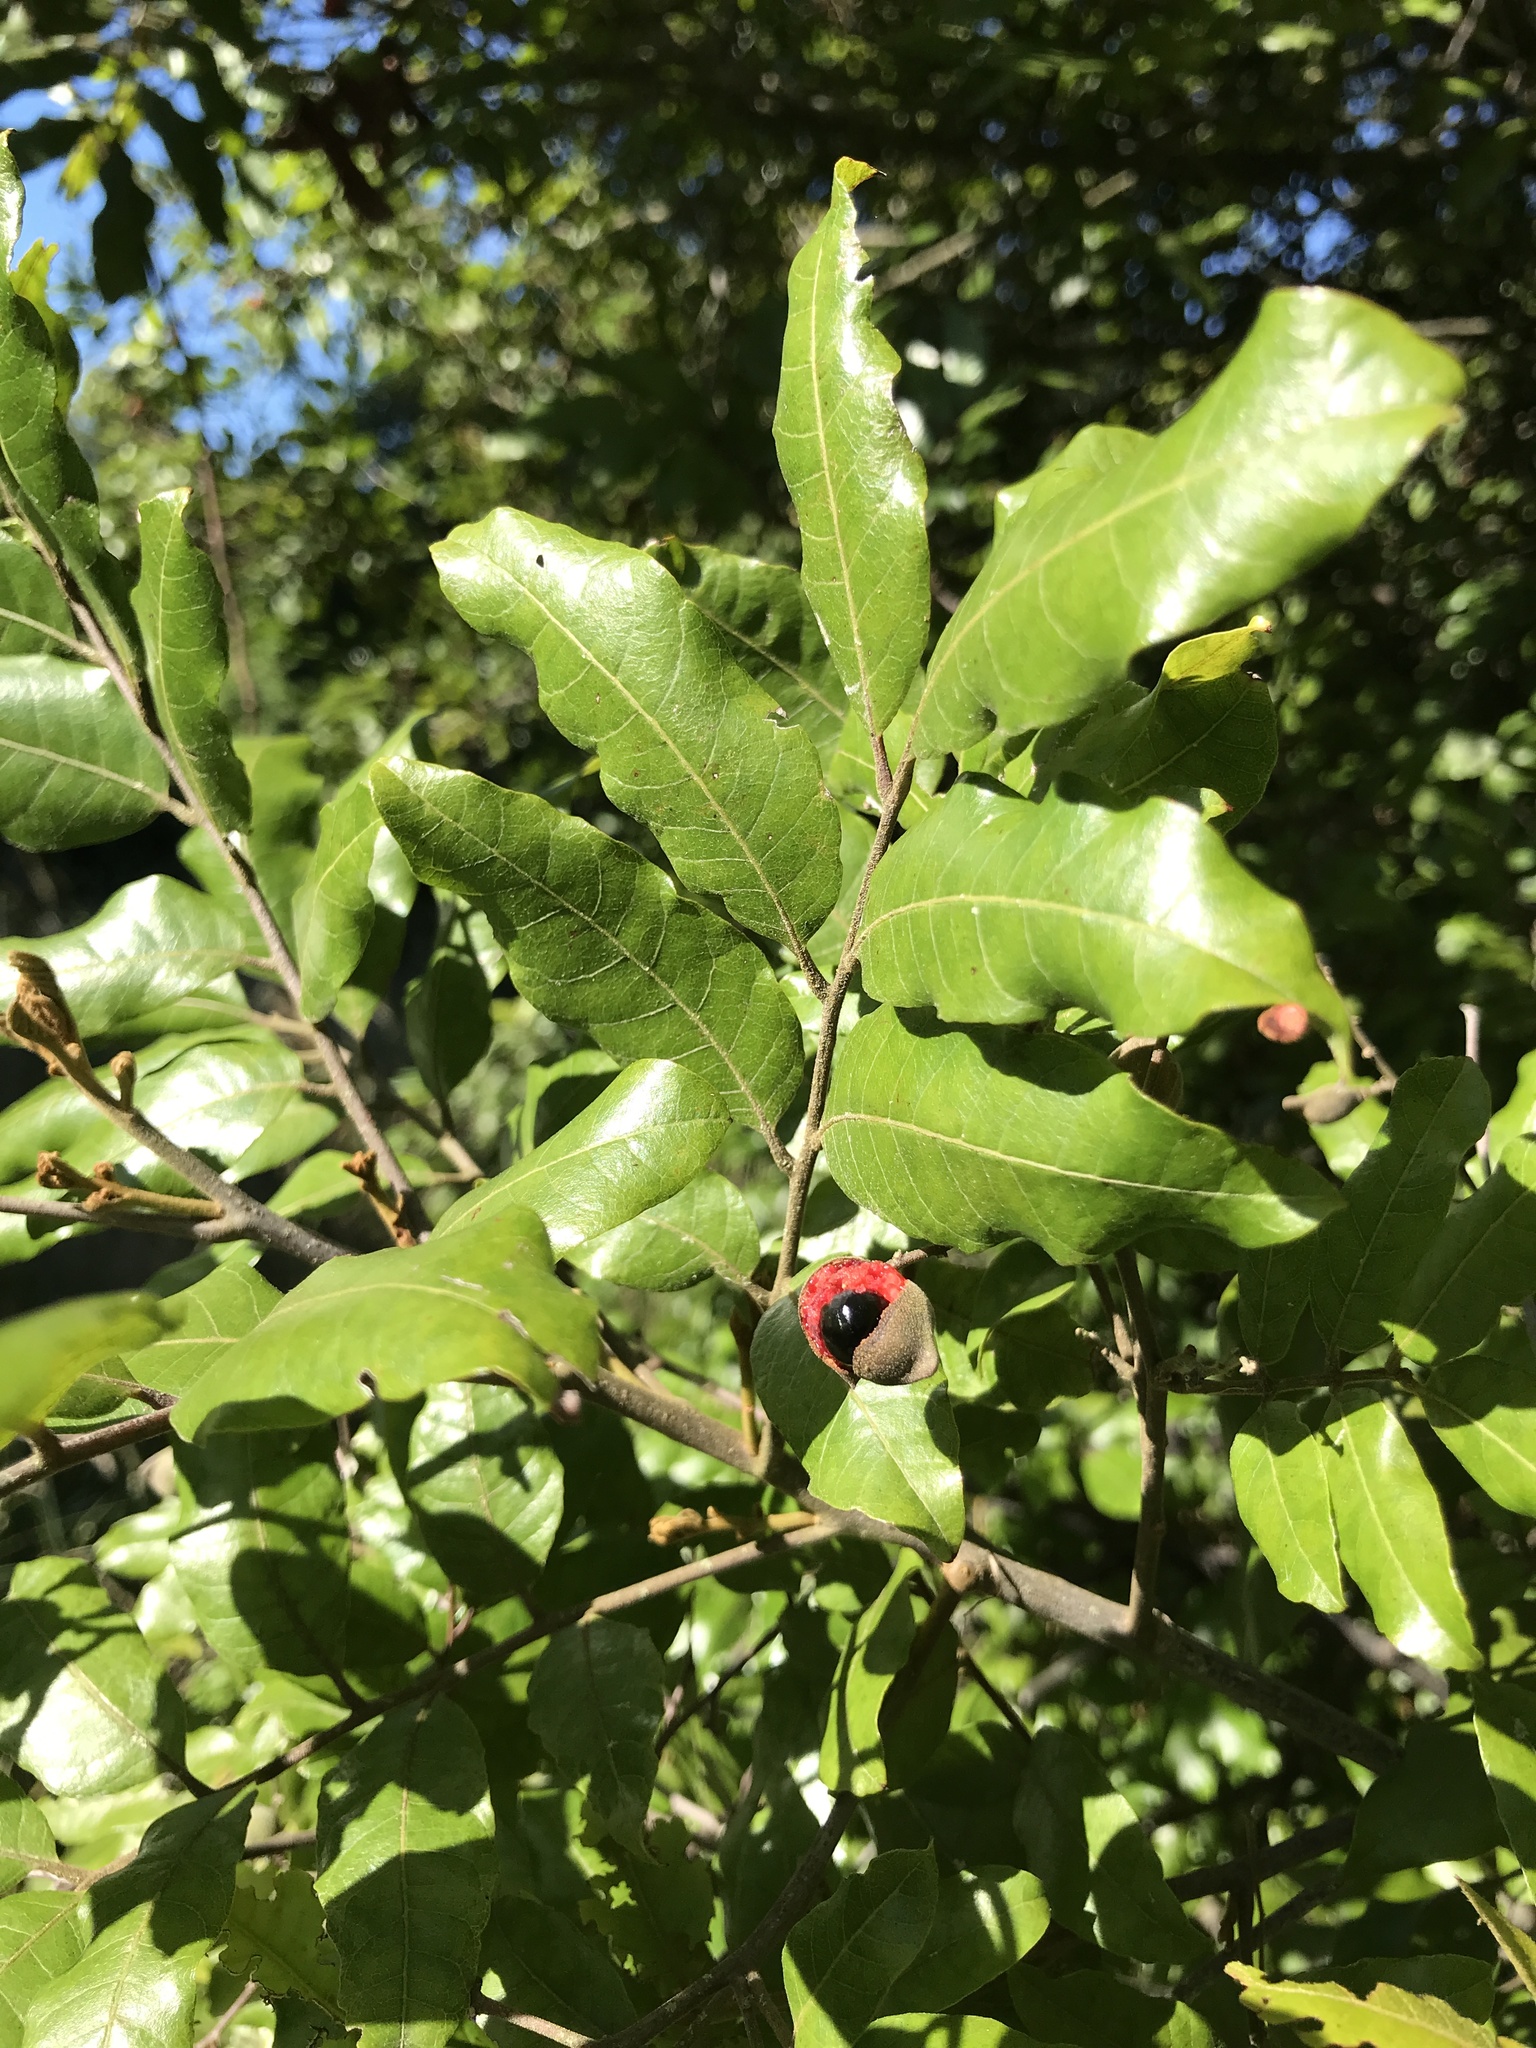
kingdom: Plantae
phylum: Tracheophyta
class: Magnoliopsida
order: Sapindales
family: Sapindaceae
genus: Alectryon
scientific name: Alectryon excelsus
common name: Three kings titoki
